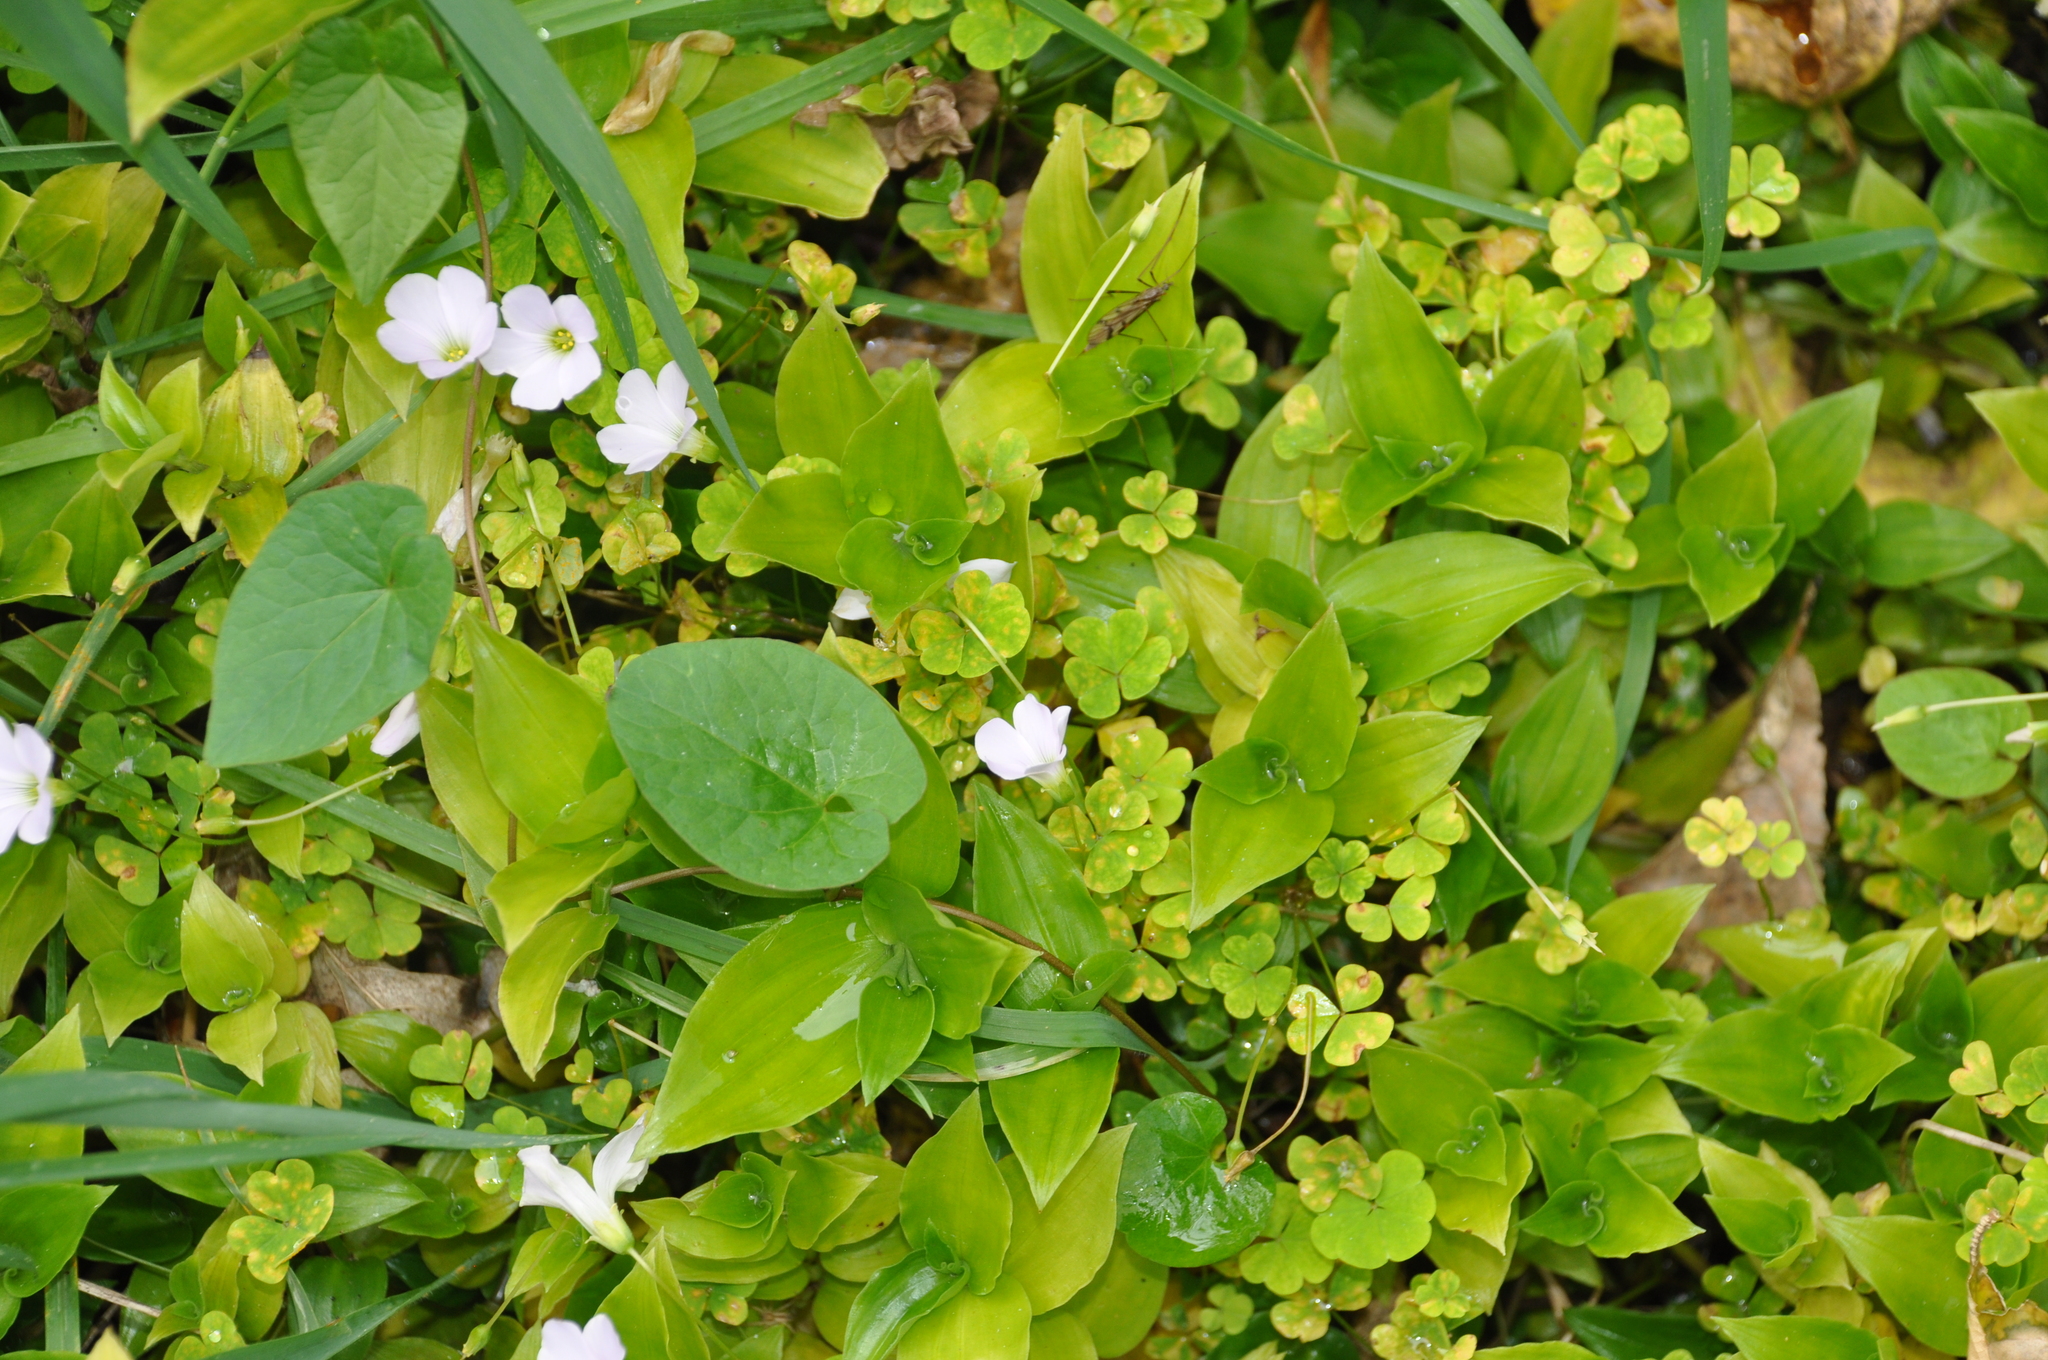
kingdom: Plantae
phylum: Tracheophyta
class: Magnoliopsida
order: Oxalidales
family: Oxalidaceae
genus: Oxalis
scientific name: Oxalis incarnata
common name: Pale pink-sorrel
